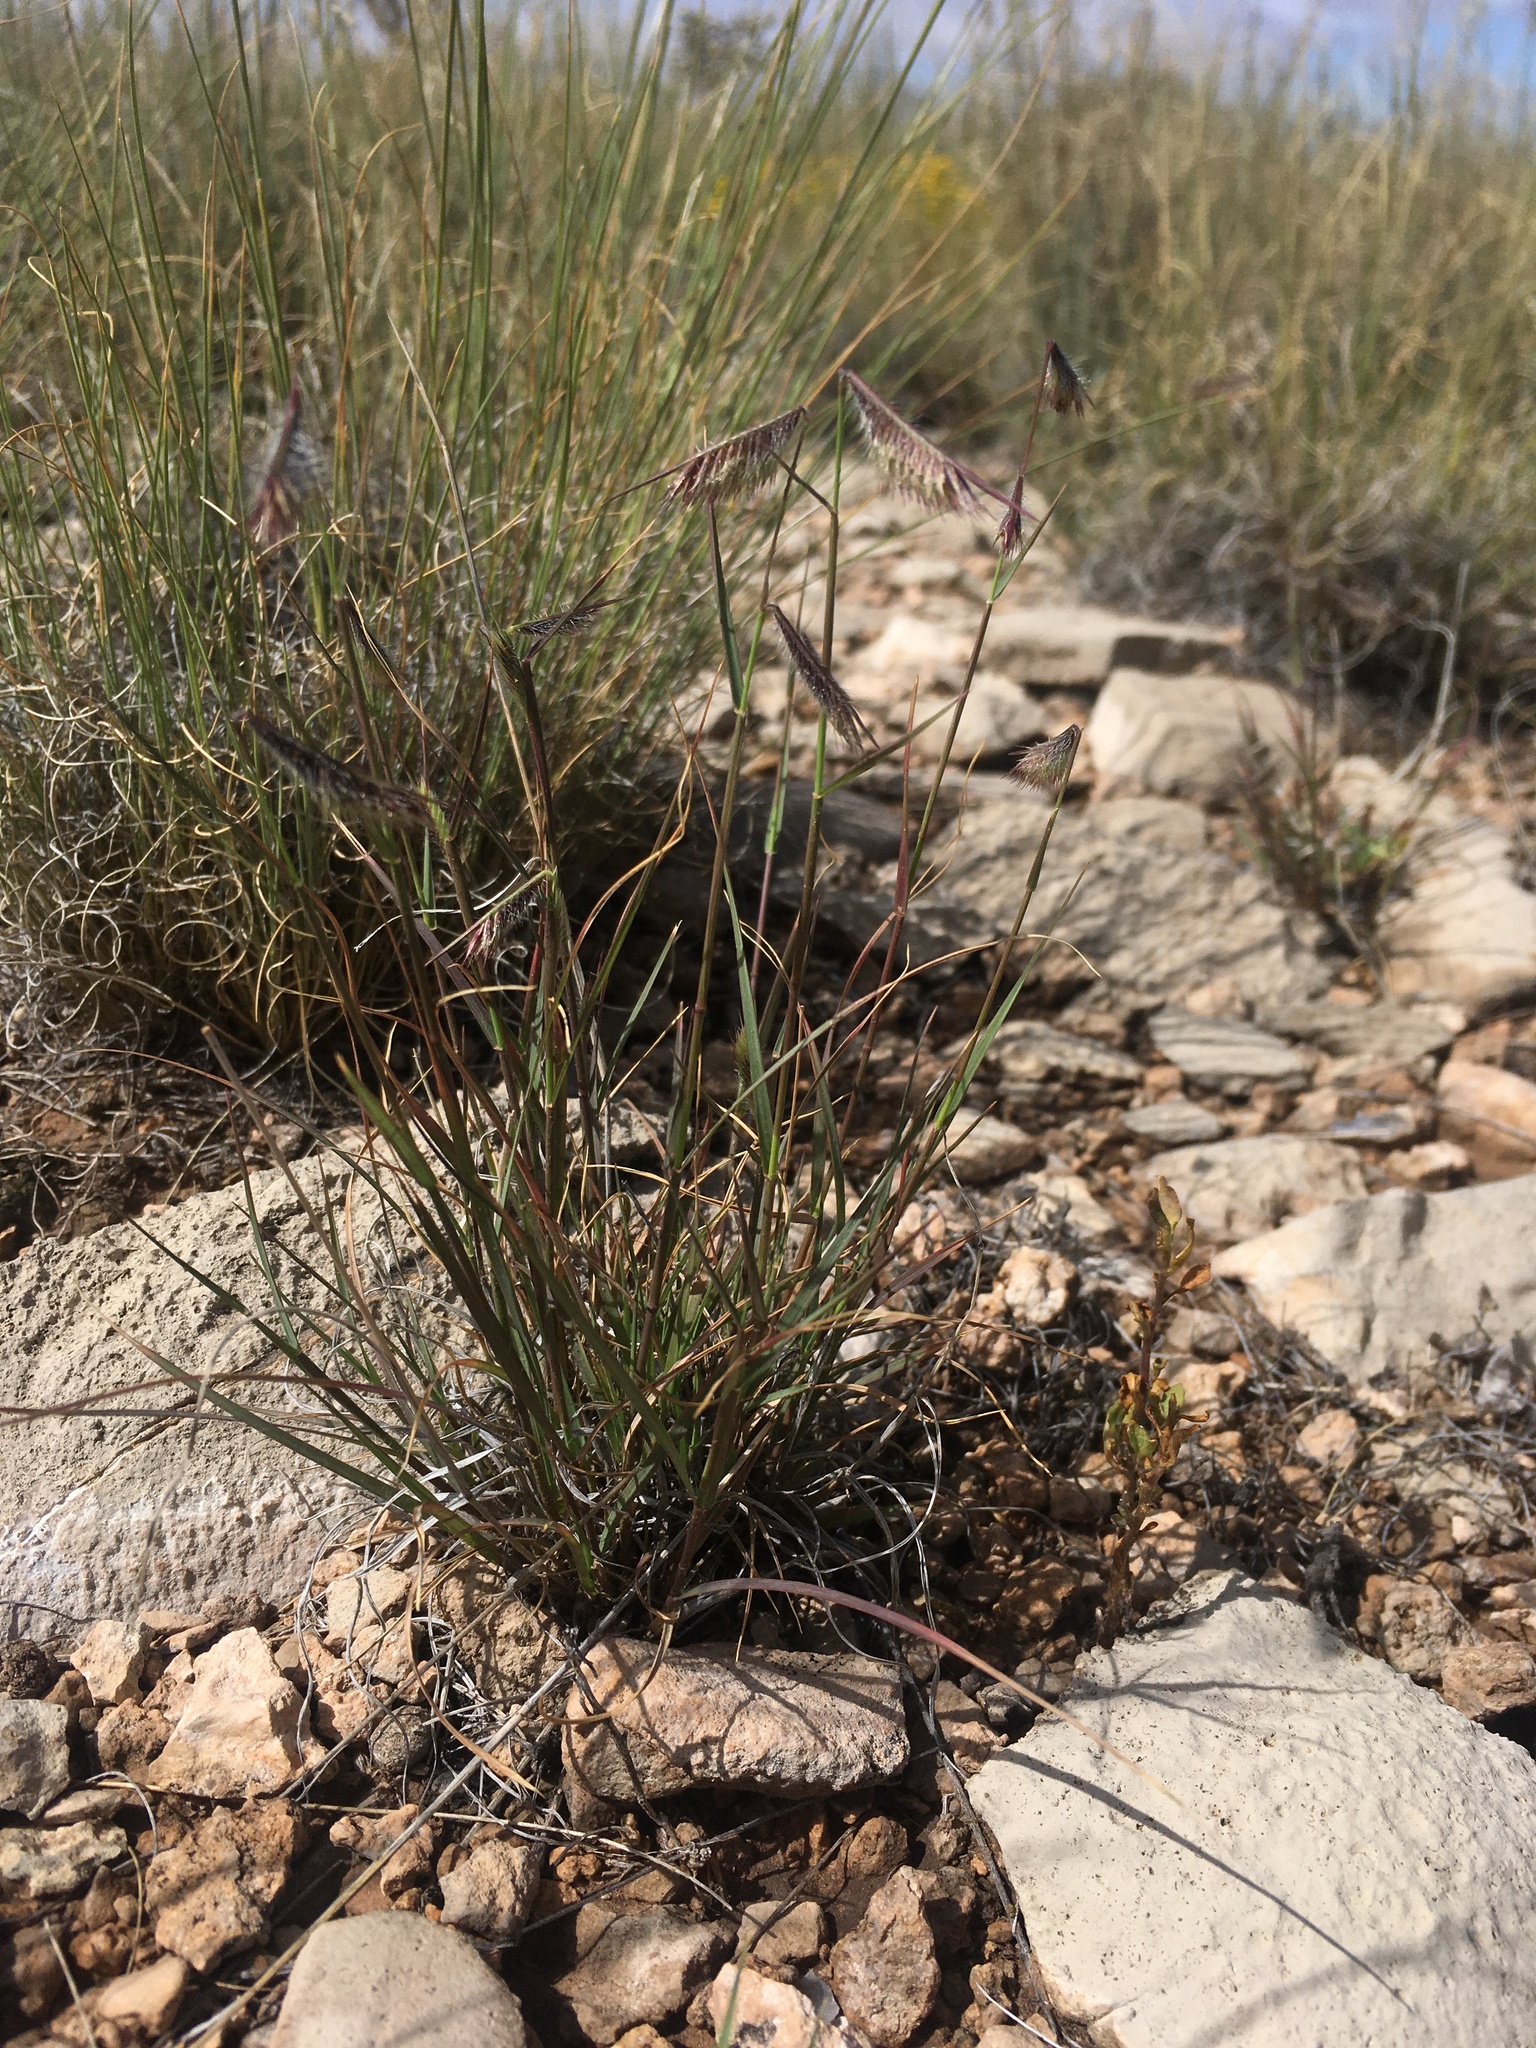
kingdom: Plantae
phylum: Tracheophyta
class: Liliopsida
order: Poales
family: Poaceae
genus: Bouteloua
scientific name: Bouteloua hirsuta
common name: Hairy grama
